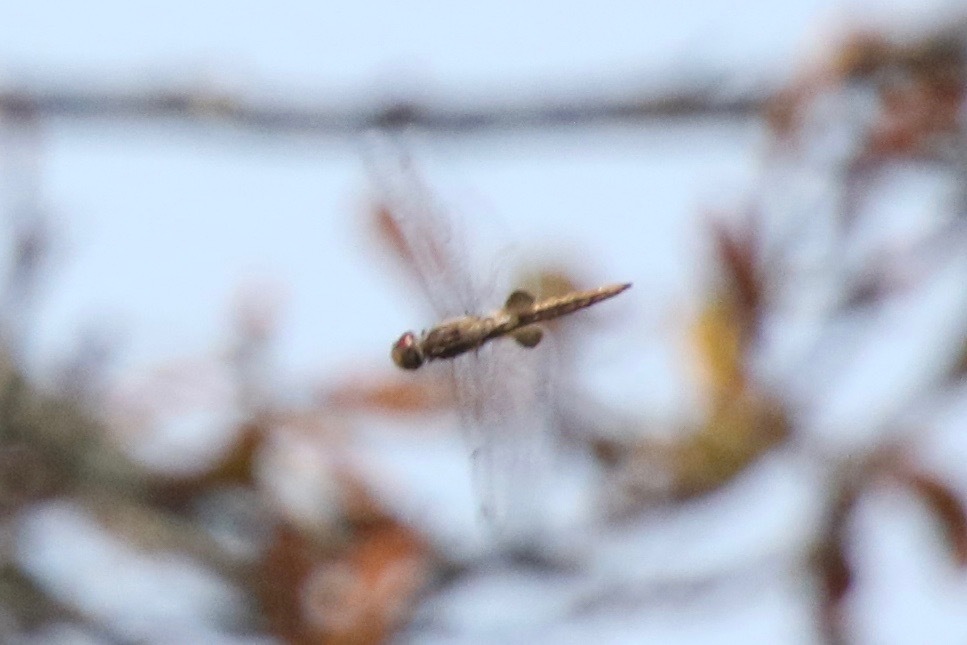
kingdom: Animalia
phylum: Arthropoda
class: Insecta
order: Odonata
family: Libellulidae
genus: Pantala
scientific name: Pantala hymenaea
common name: Spot-winged glider
